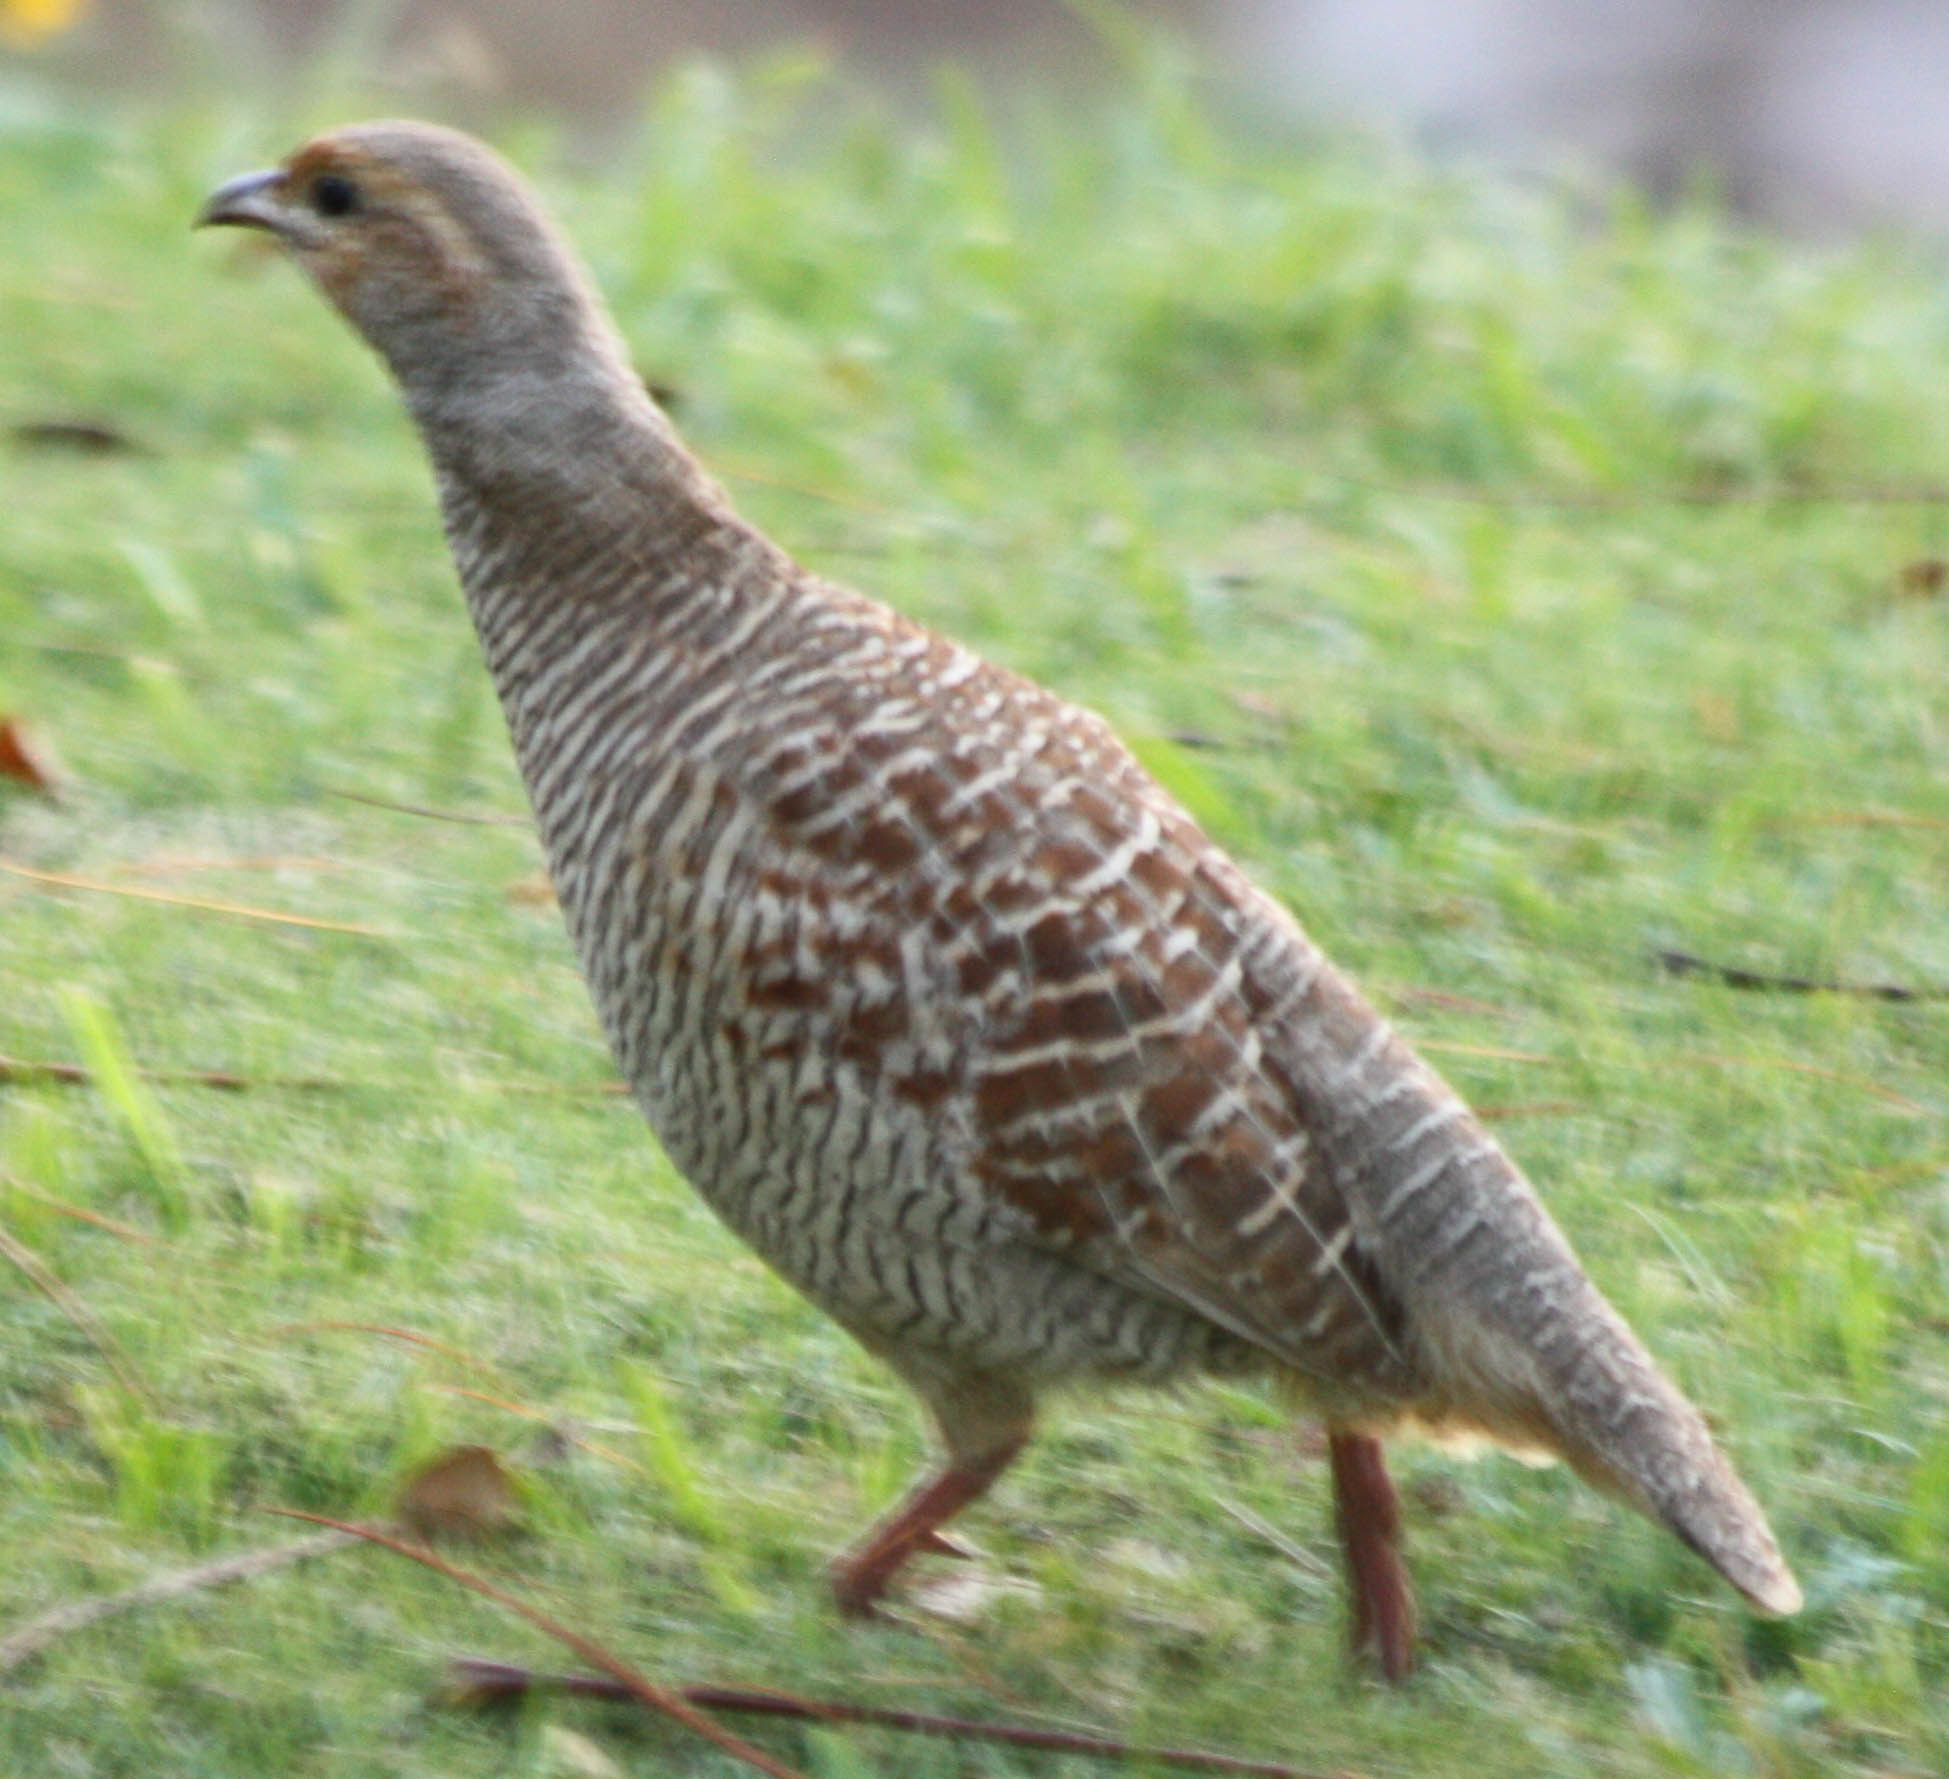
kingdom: Animalia
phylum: Chordata
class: Aves
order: Galliformes
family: Phasianidae
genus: Ortygornis
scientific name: Ortygornis pondicerianus
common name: Grey francolin
